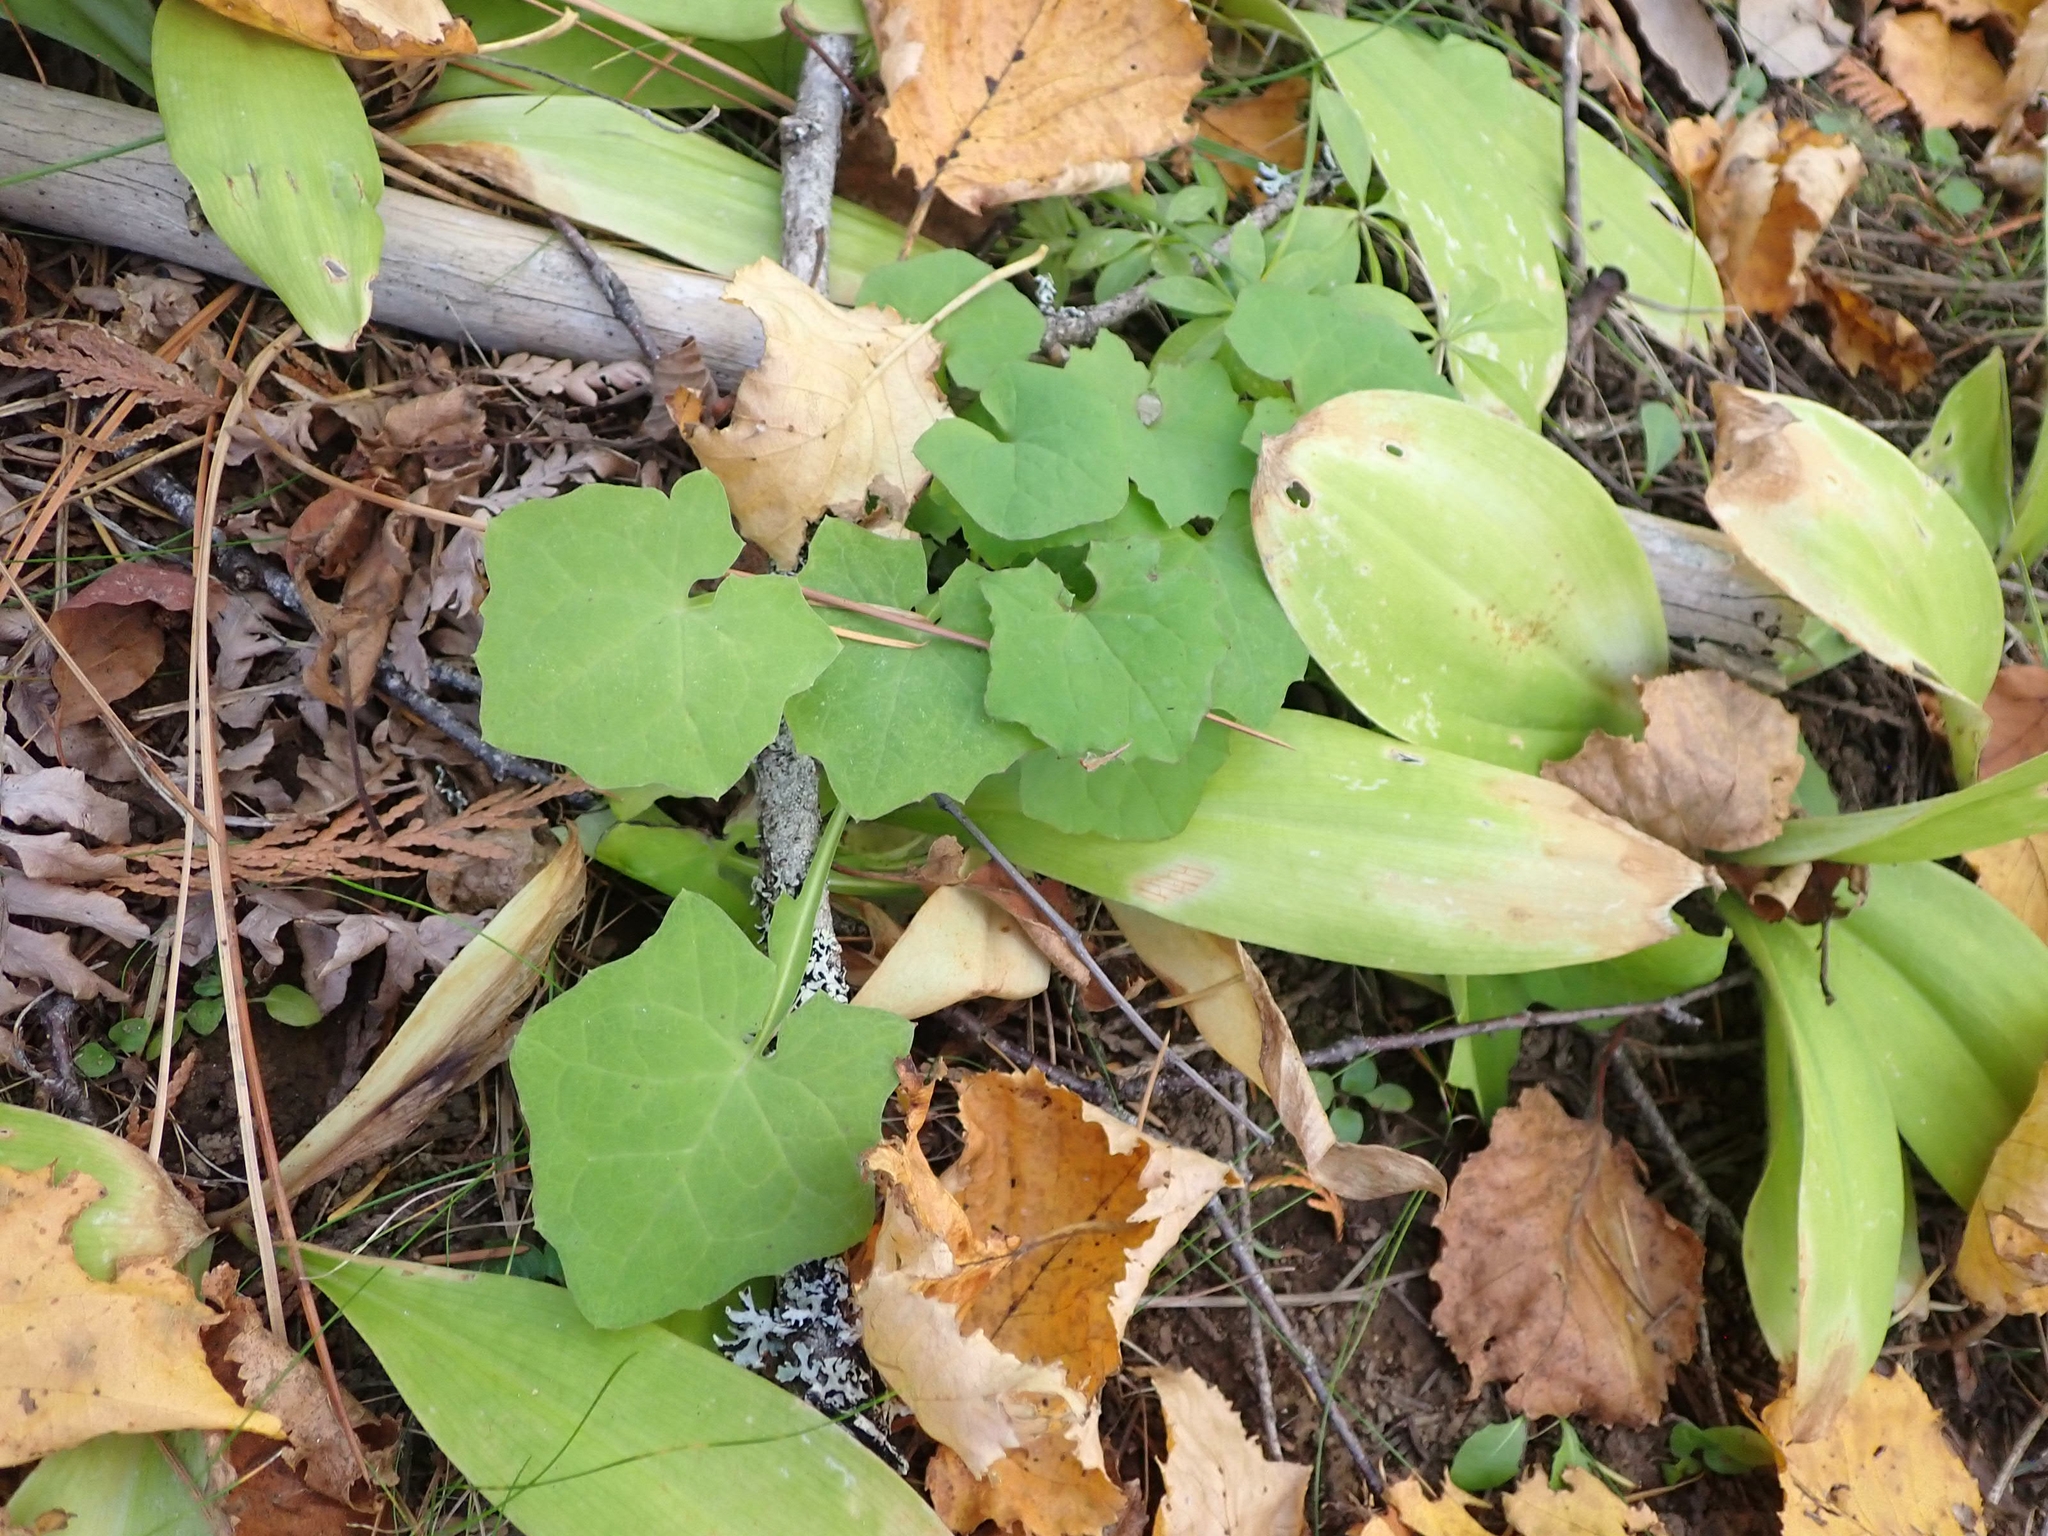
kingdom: Plantae
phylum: Tracheophyta
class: Magnoliopsida
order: Asterales
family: Asteraceae
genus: Mycelis
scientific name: Mycelis muralis
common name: Wall lettuce
